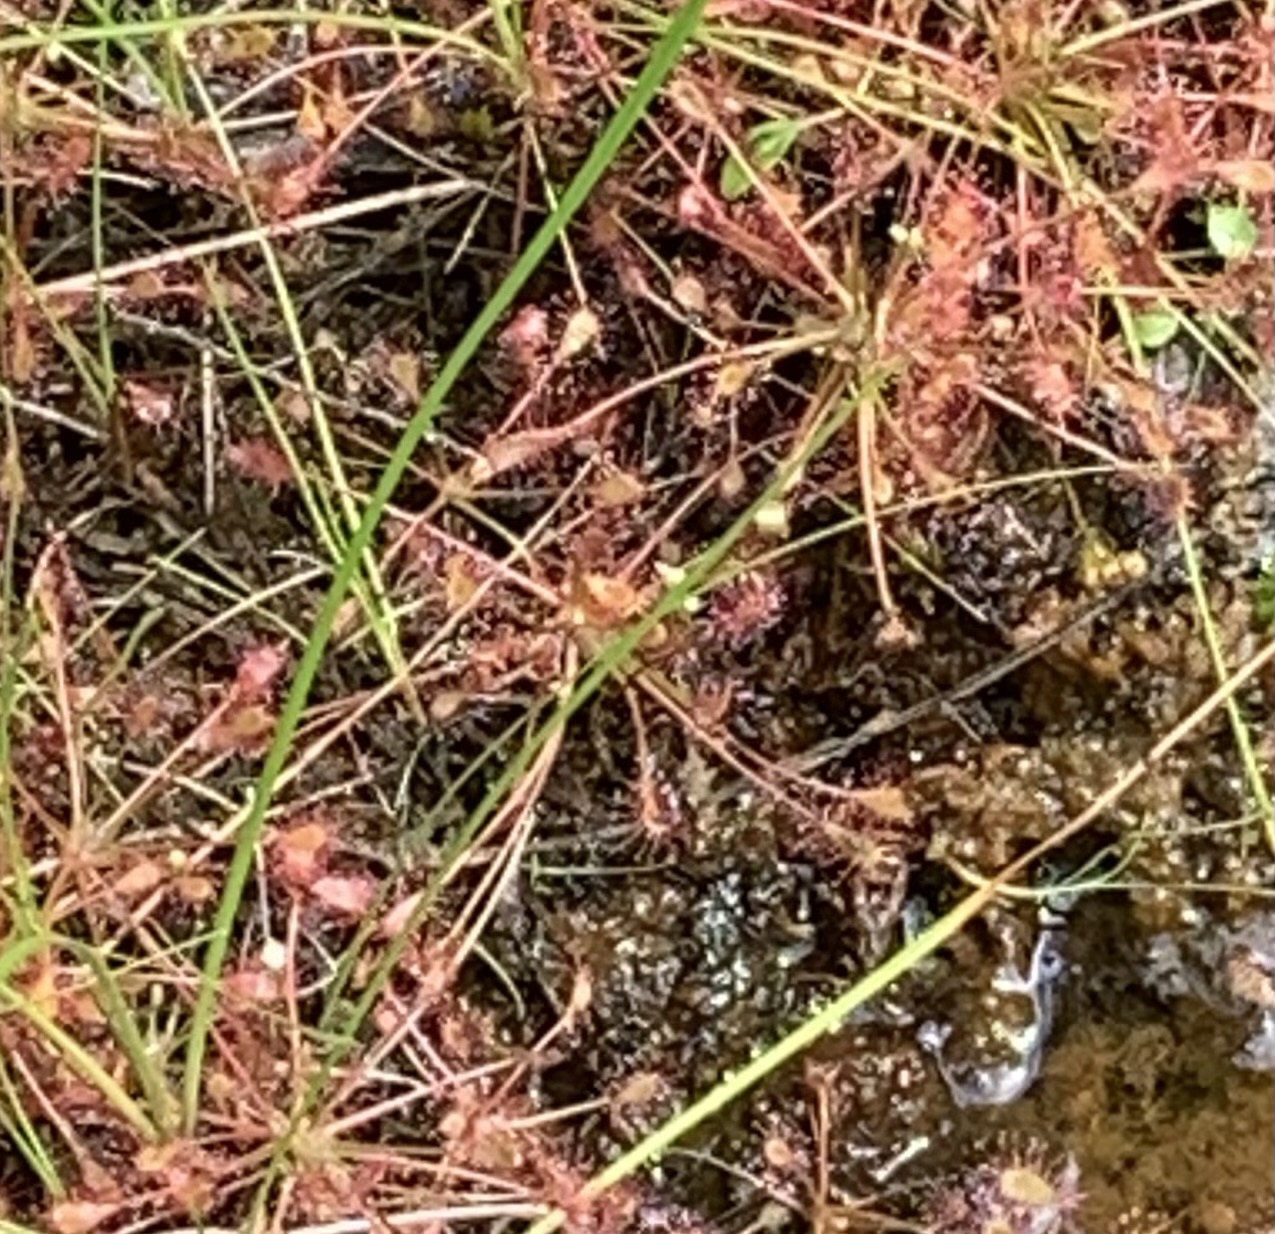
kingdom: Plantae
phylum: Tracheophyta
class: Magnoliopsida
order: Caryophyllales
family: Droseraceae
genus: Drosera
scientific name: Drosera intermedia
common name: Oblong-leaved sundew
